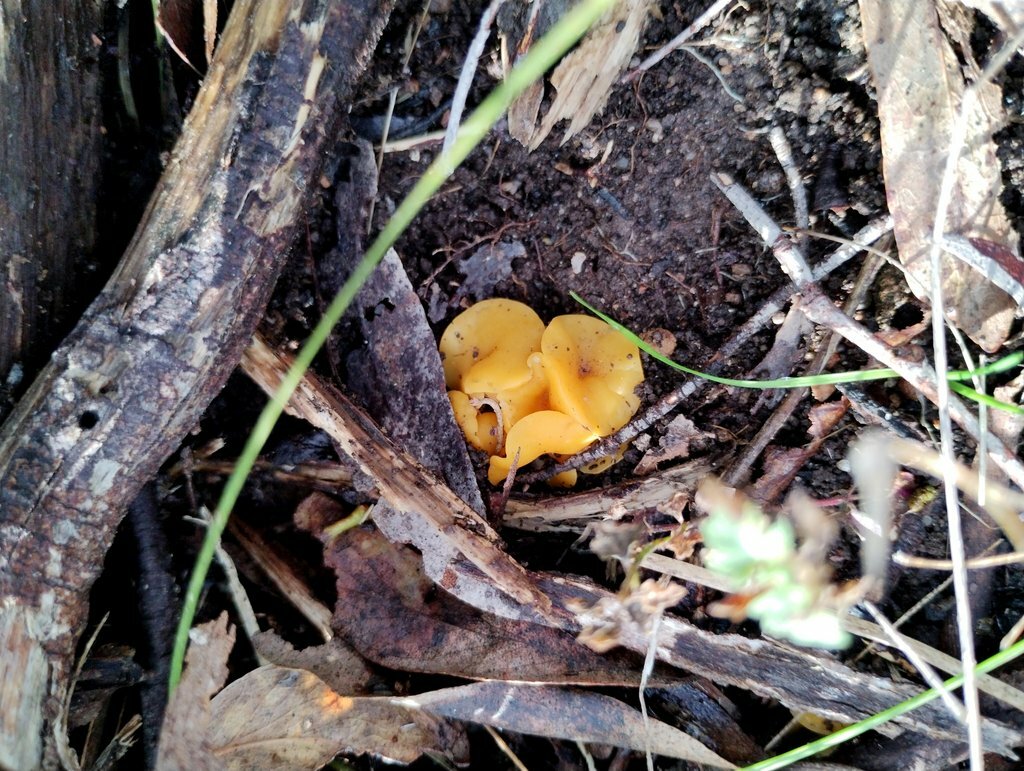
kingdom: Fungi
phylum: Ascomycota
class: Leotiomycetes
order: Helotiales
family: Helotiaceae
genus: Phaeohelotium
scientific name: Phaeohelotium baileyanum
